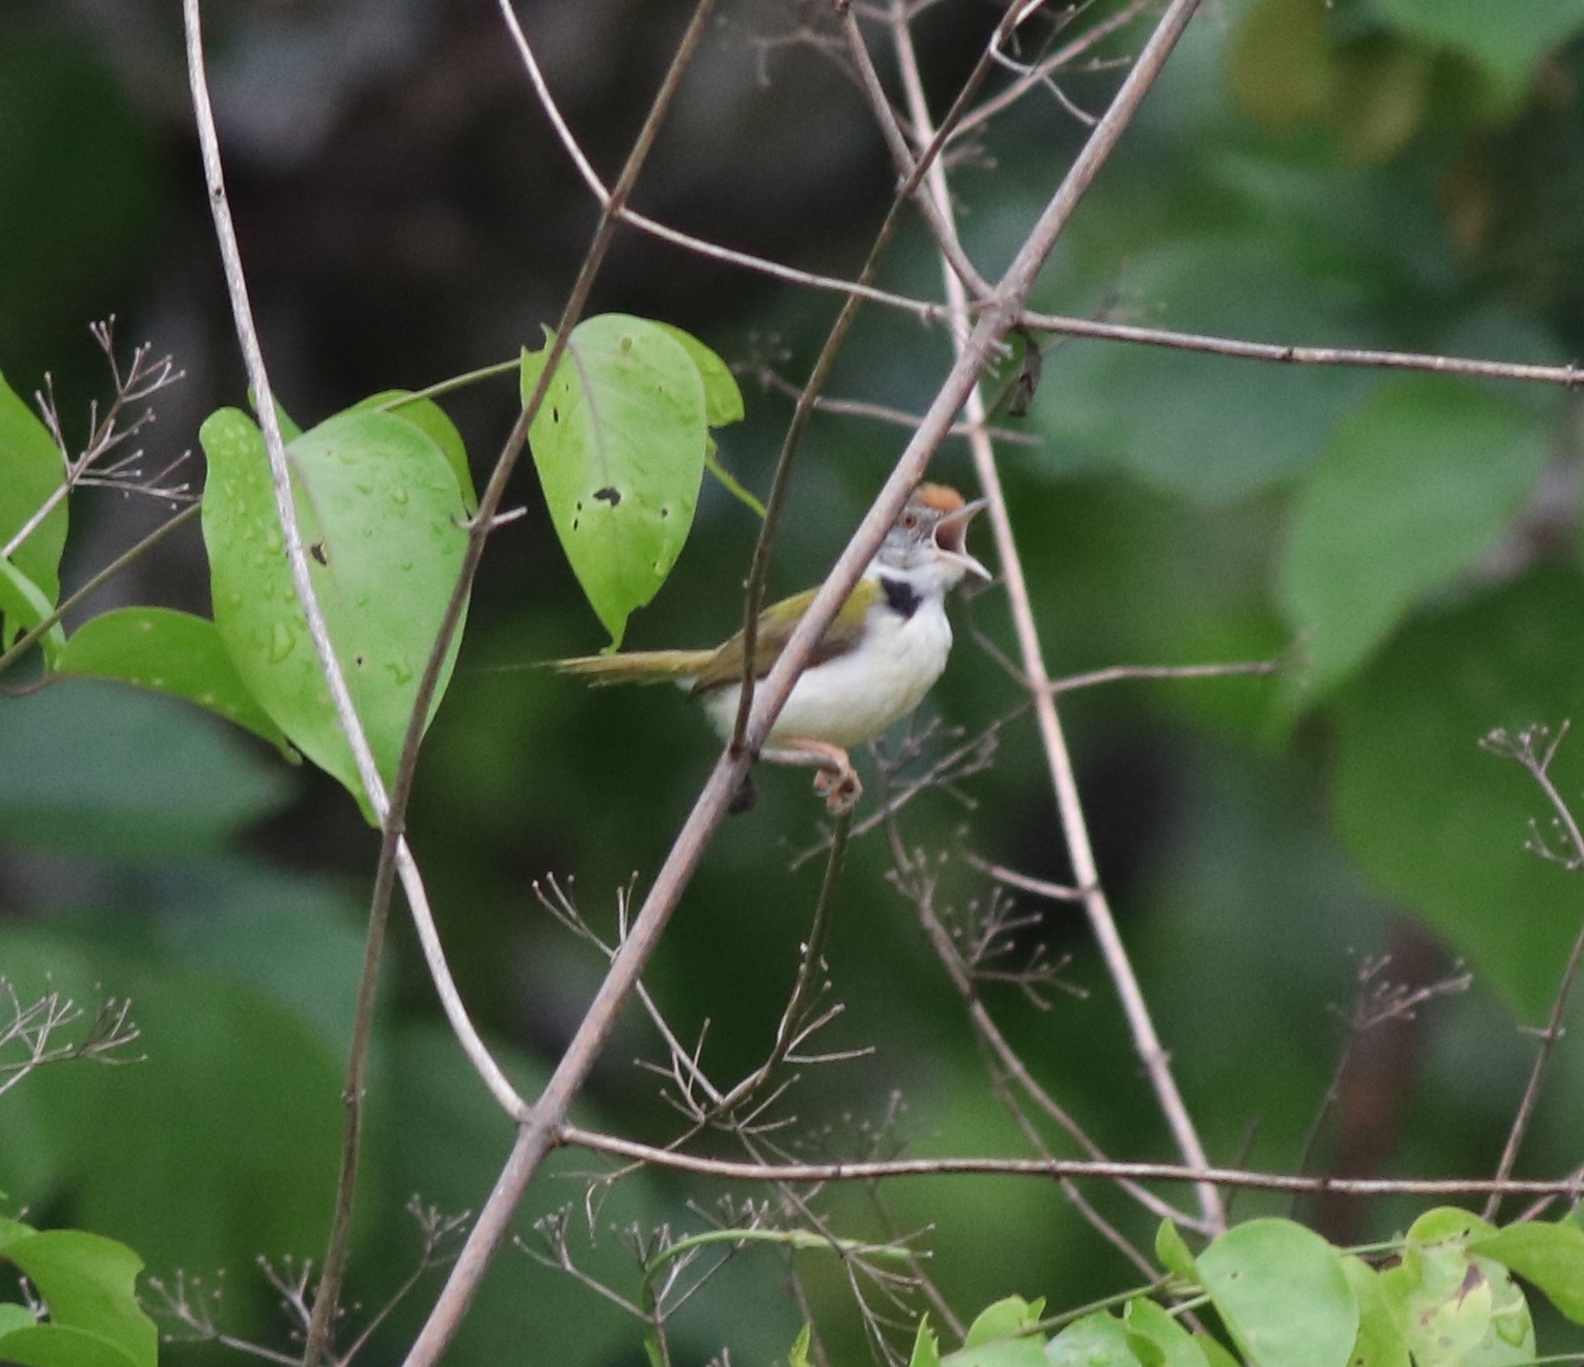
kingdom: Animalia
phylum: Chordata
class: Aves
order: Passeriformes
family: Cisticolidae
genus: Orthotomus
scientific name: Orthotomus sutorius
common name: Common tailorbird
